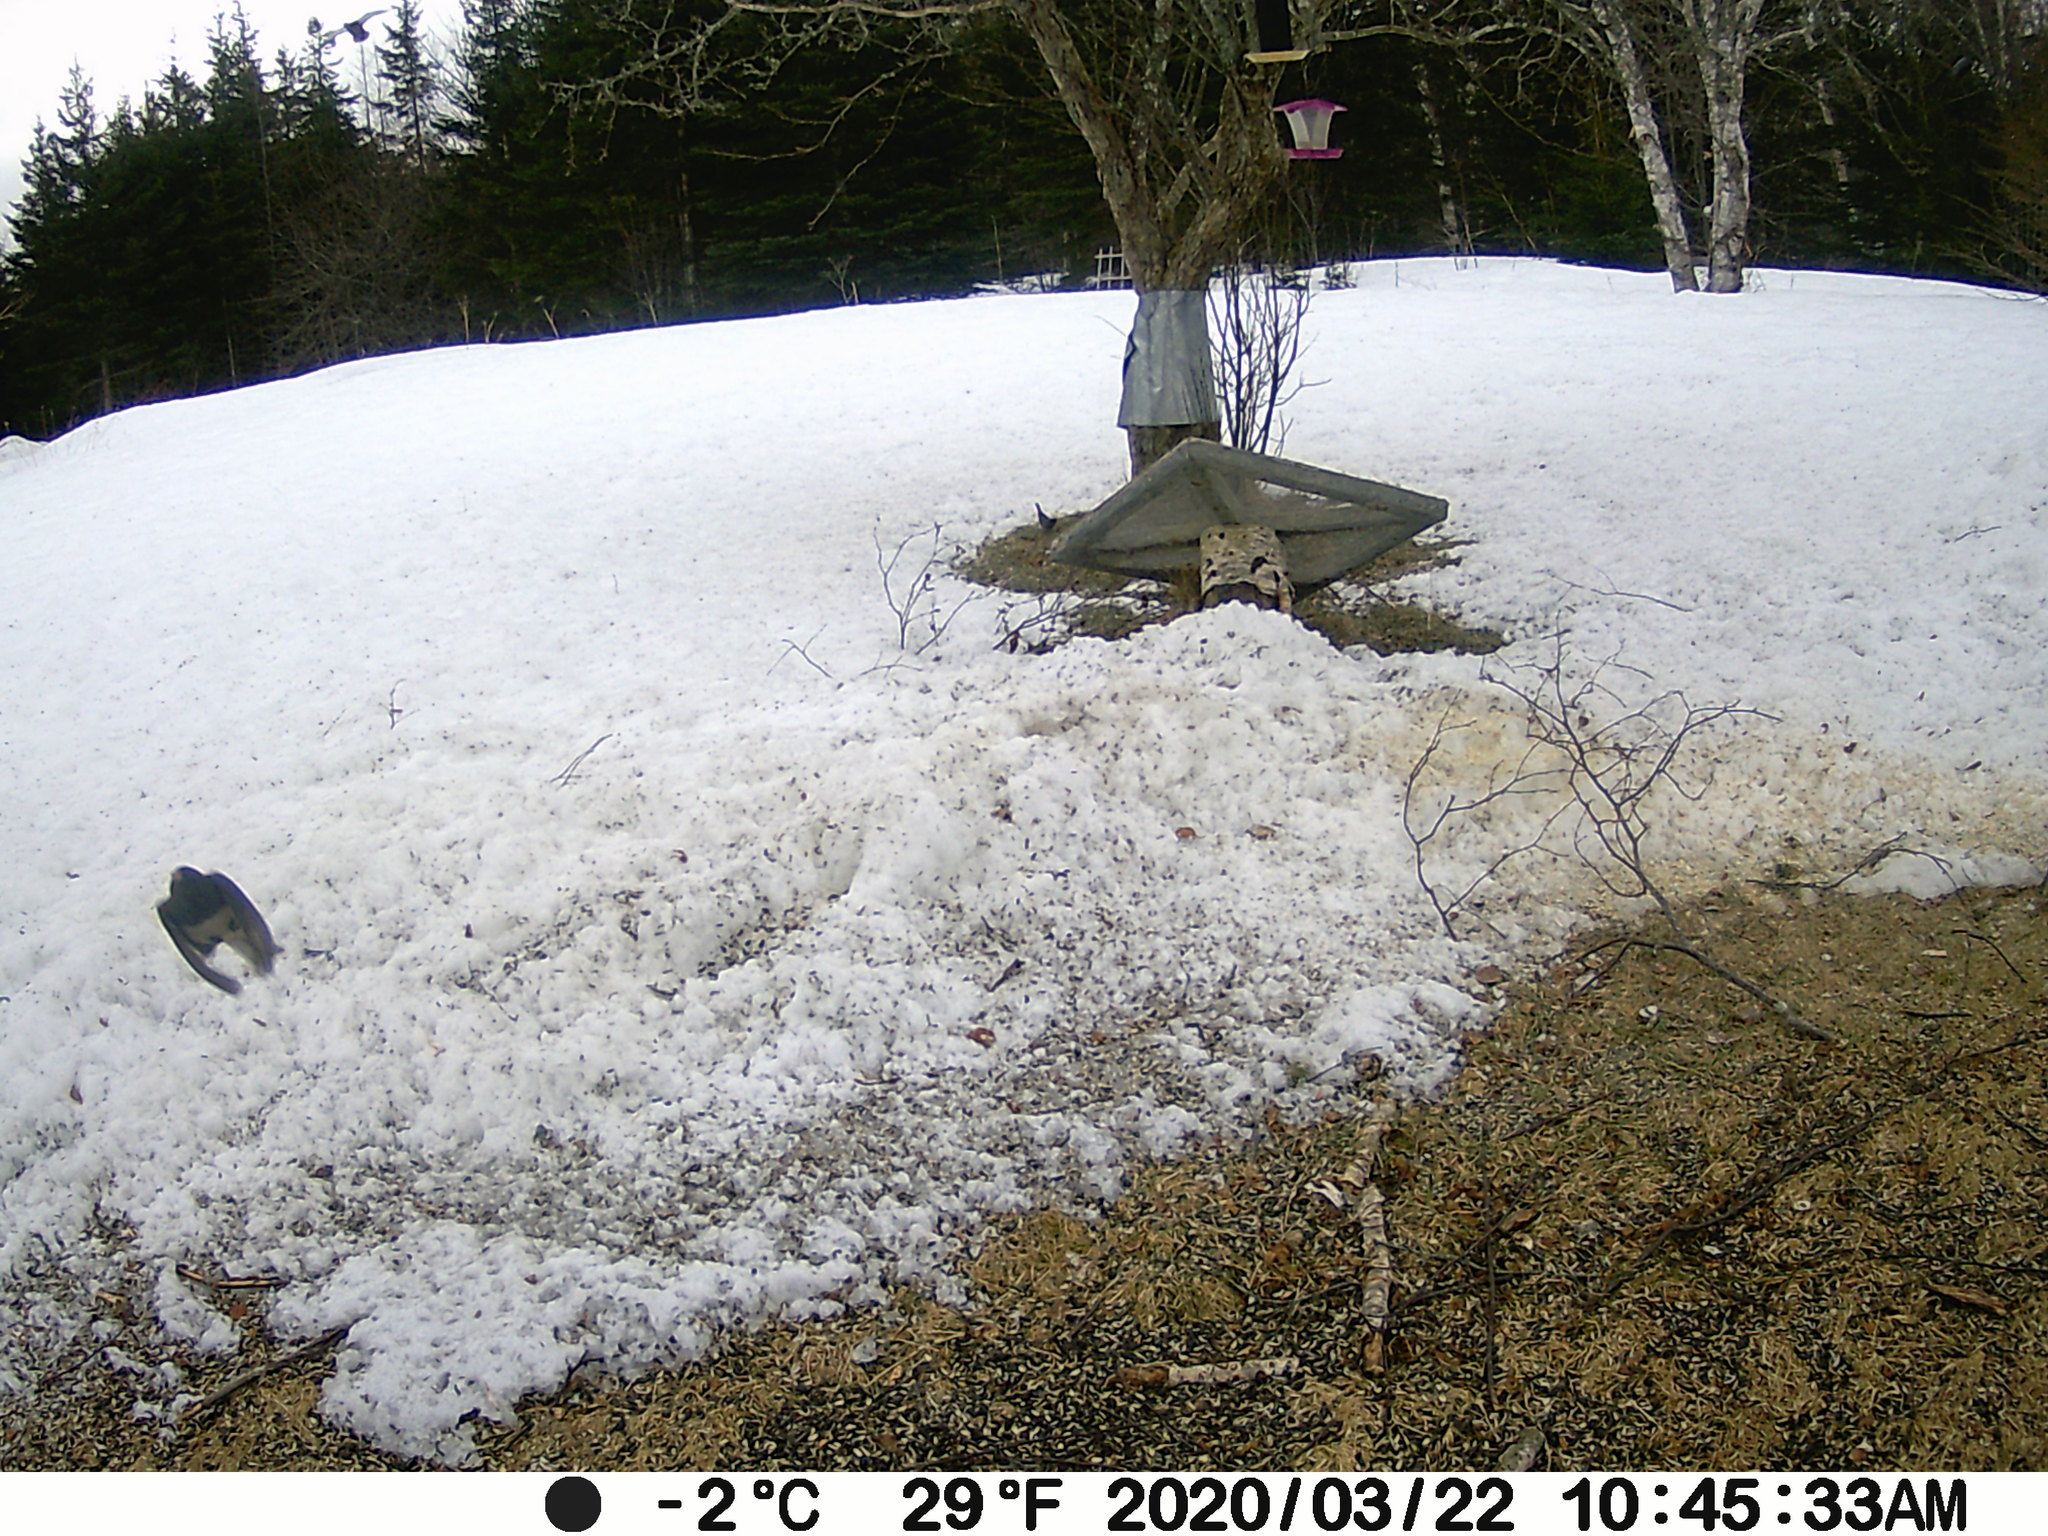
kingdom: Animalia
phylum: Chordata
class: Aves
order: Passeriformes
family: Passerellidae
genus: Junco
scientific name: Junco hyemalis
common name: Dark-eyed junco
